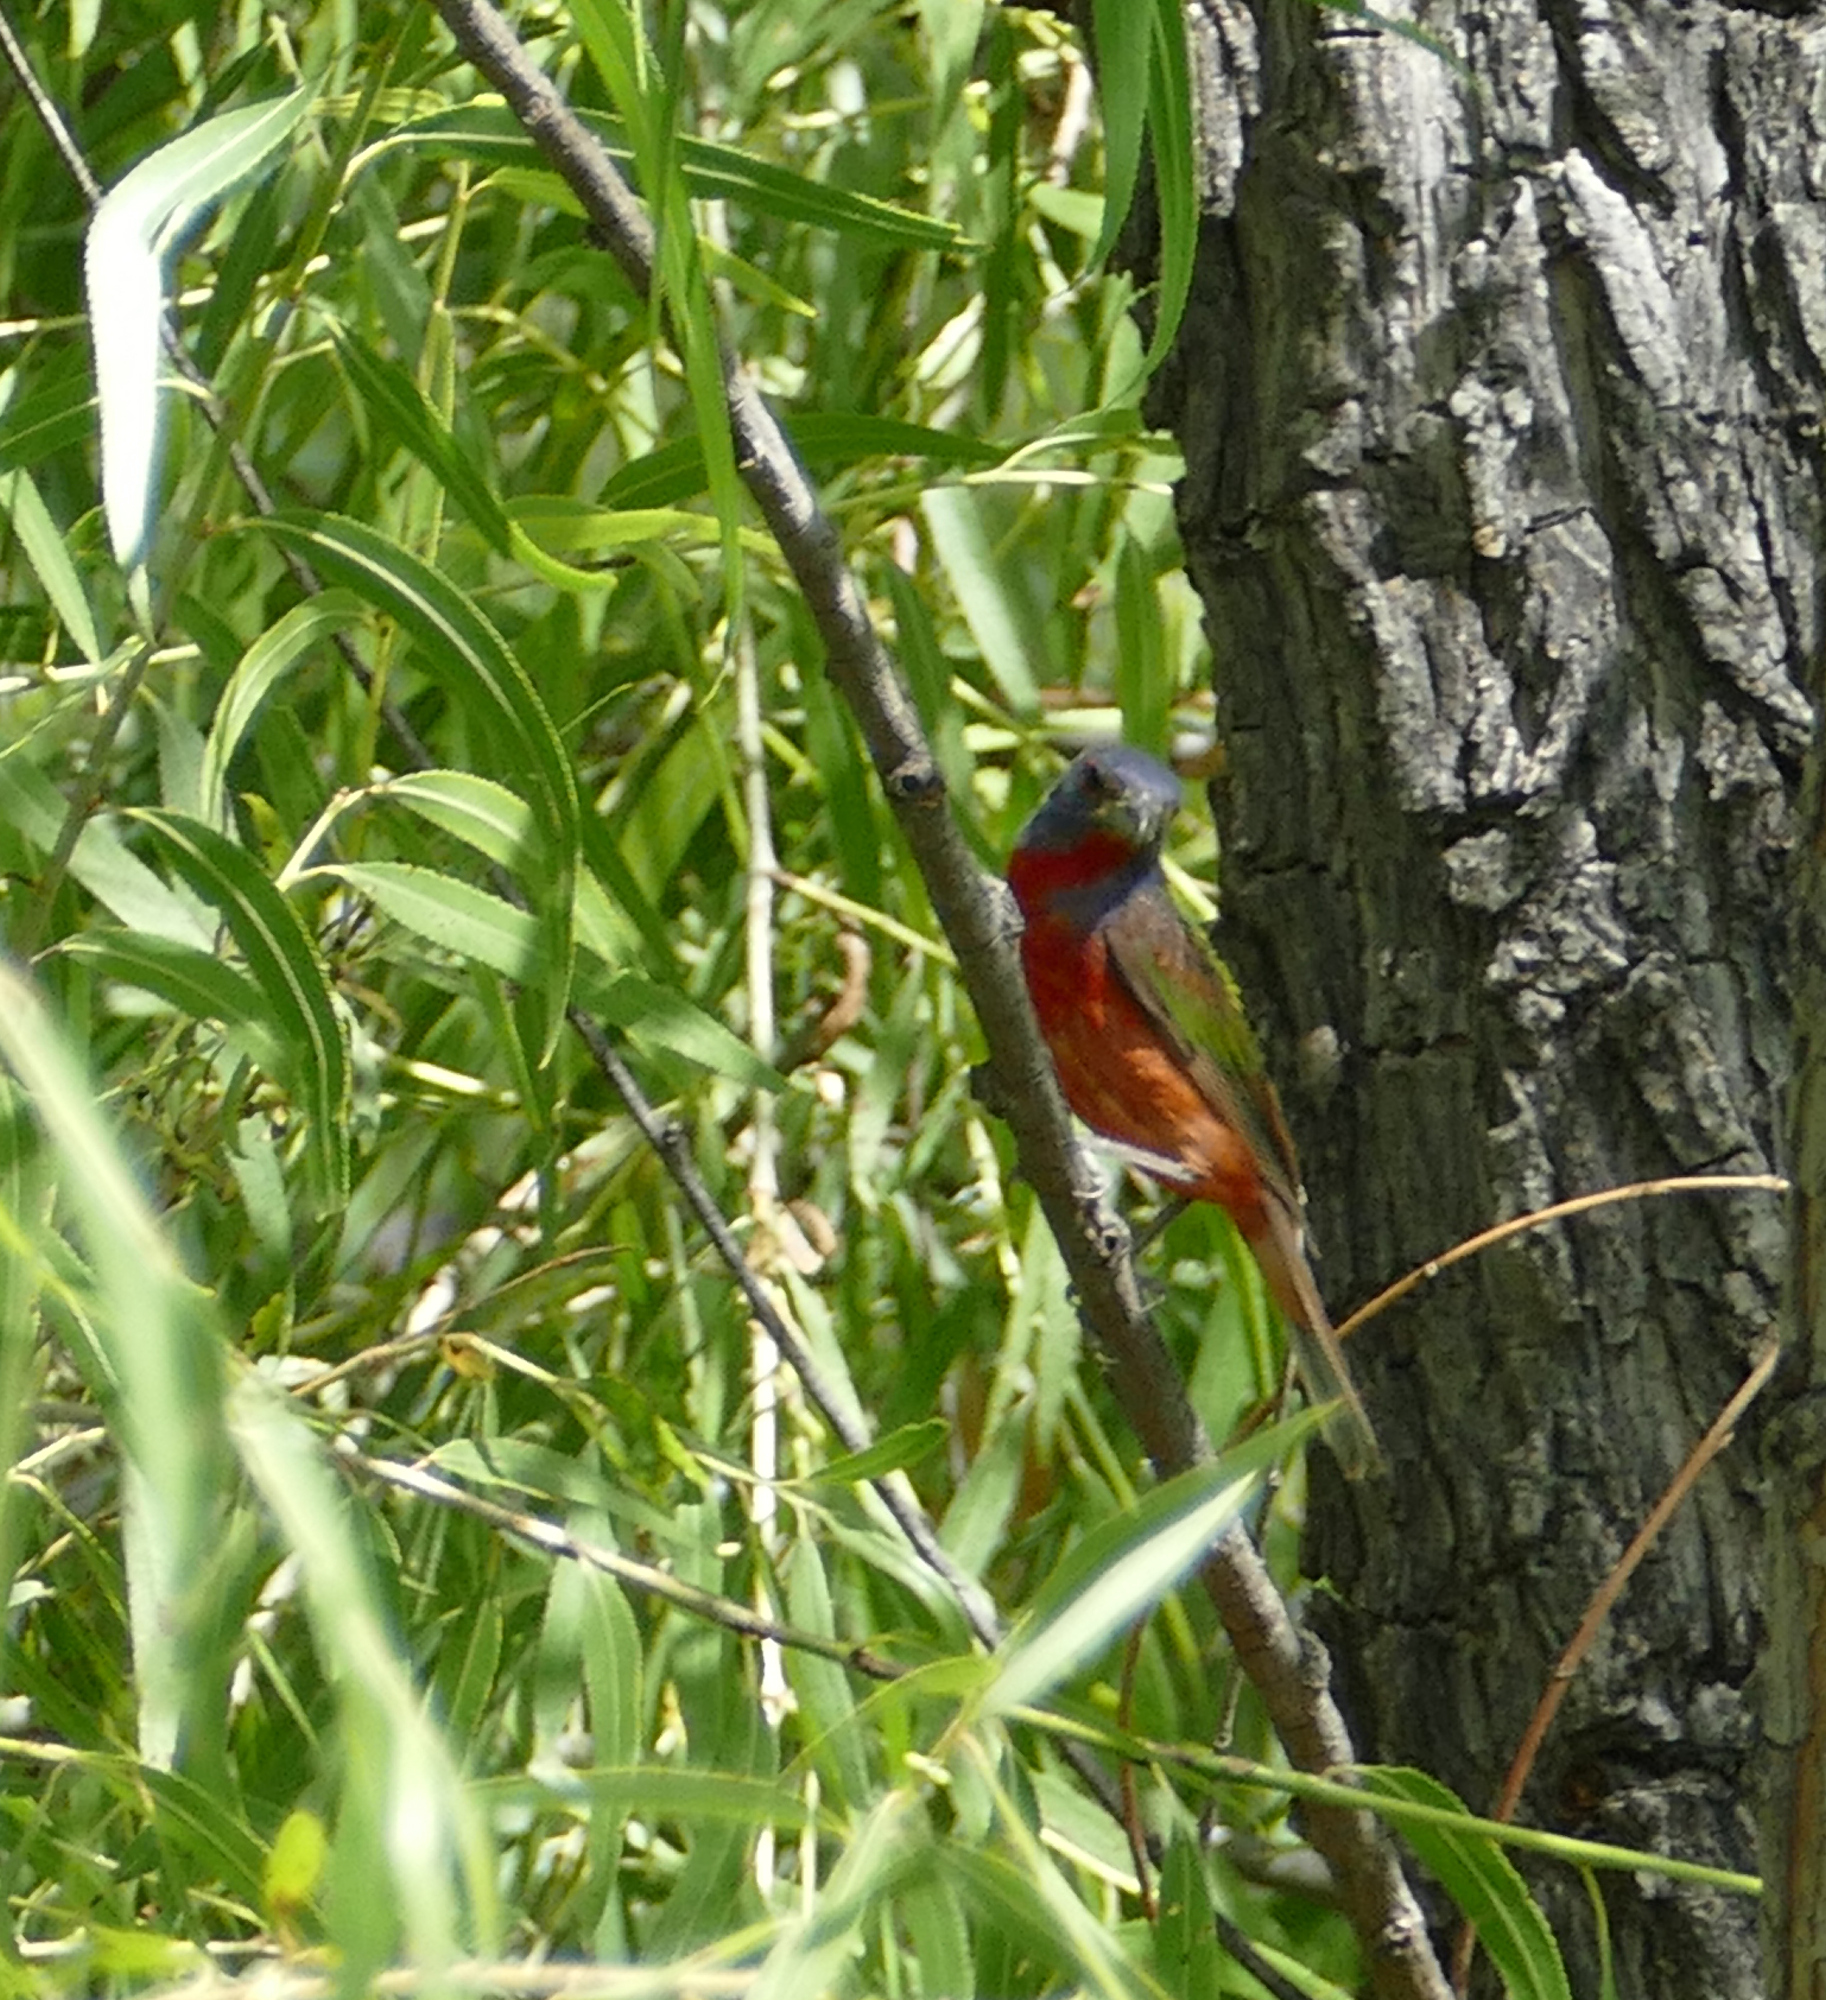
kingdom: Animalia
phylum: Chordata
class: Aves
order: Passeriformes
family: Cardinalidae
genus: Passerina
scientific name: Passerina ciris
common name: Painted bunting
